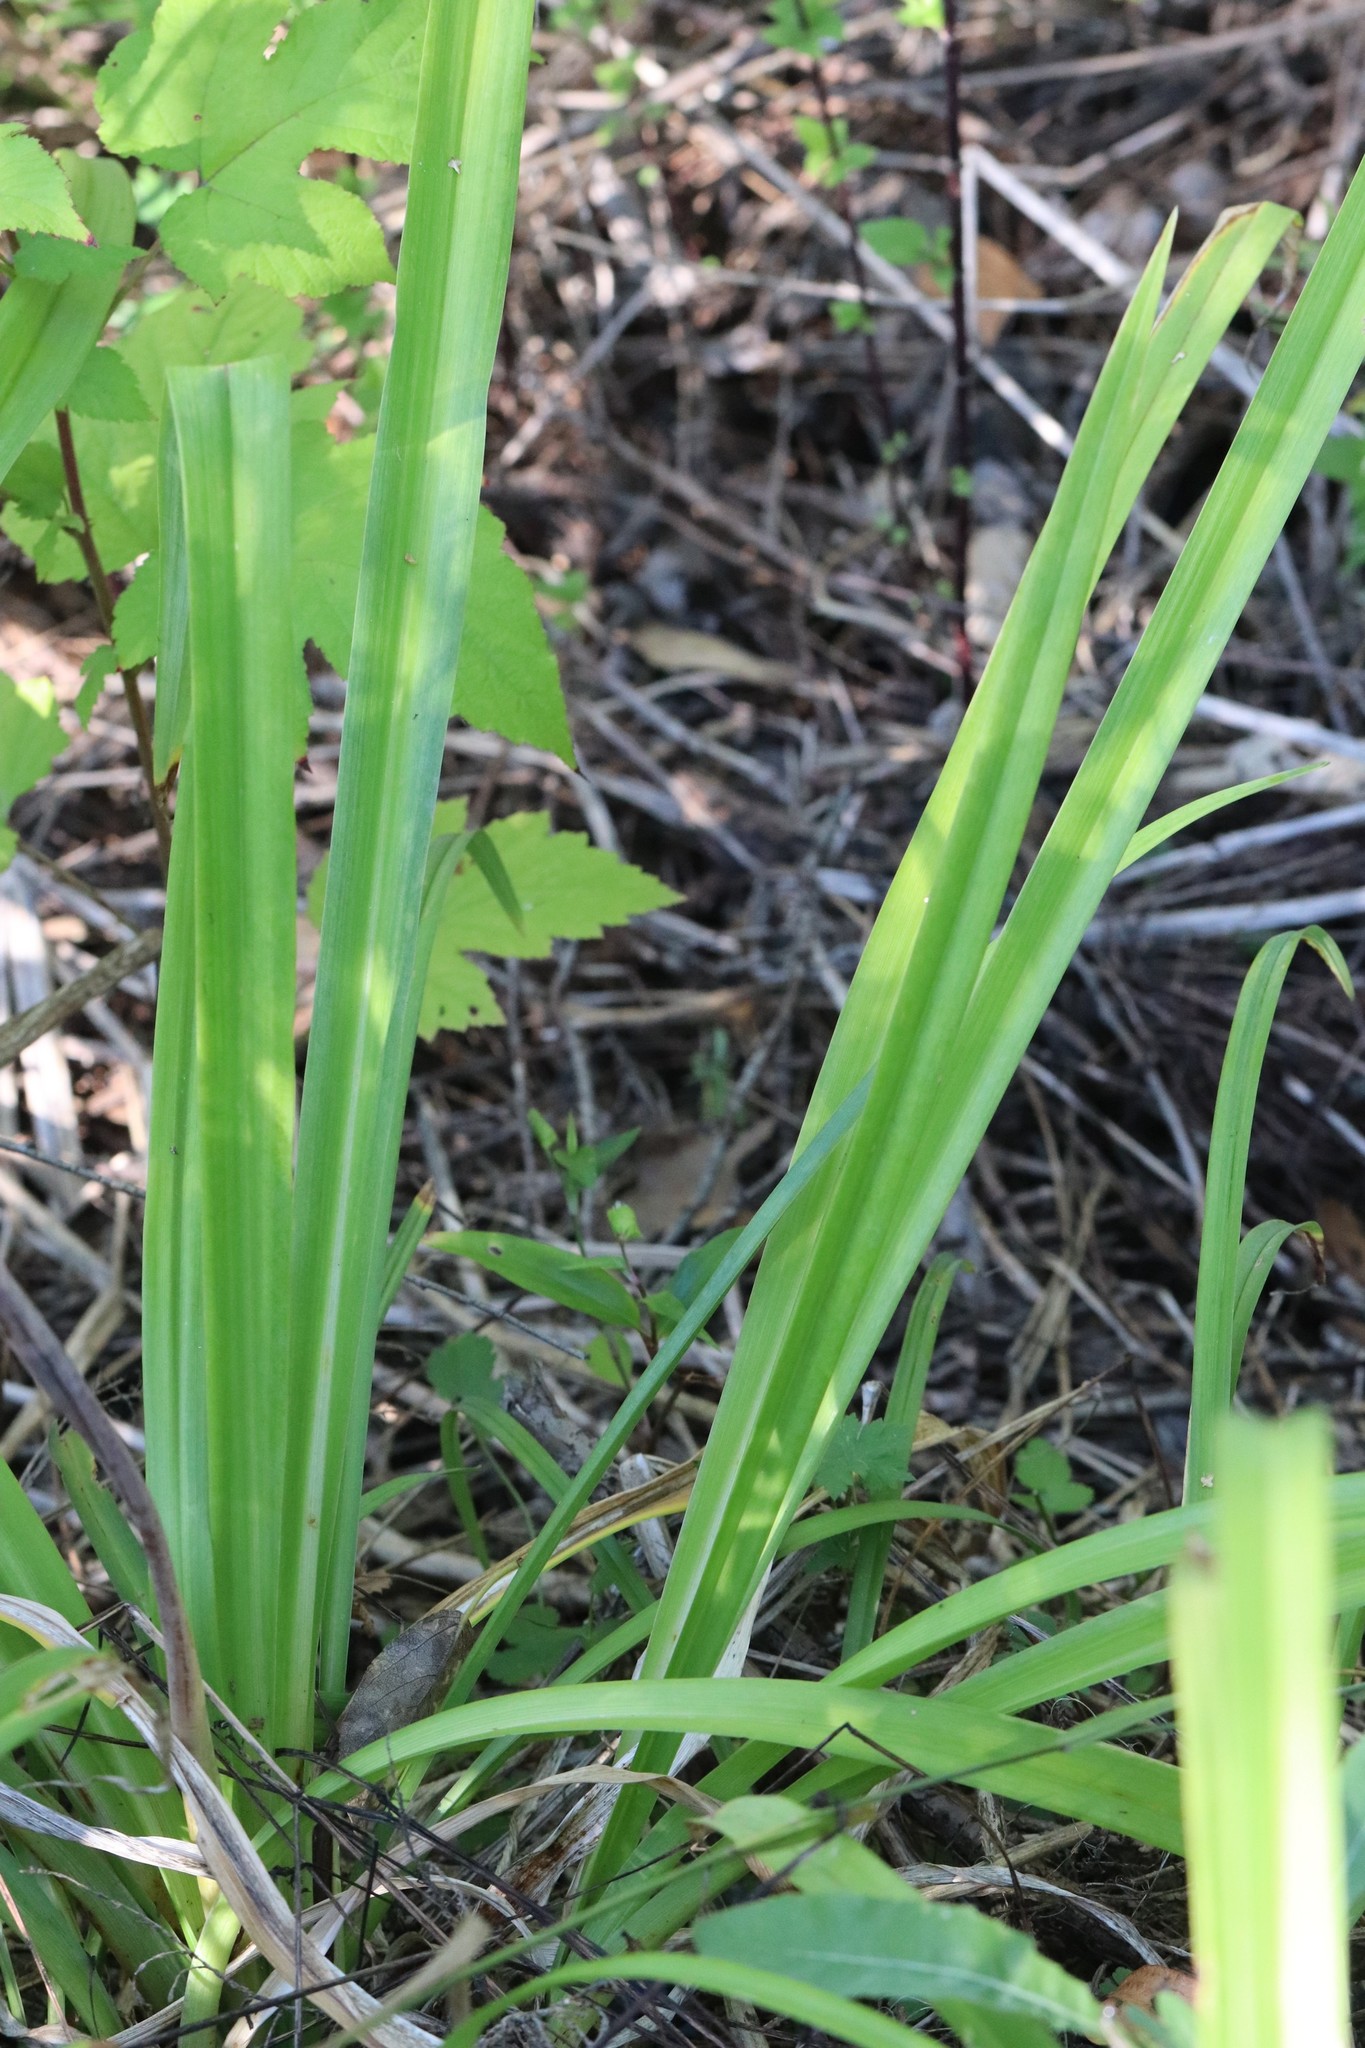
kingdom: Plantae
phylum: Tracheophyta
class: Liliopsida
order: Asparagales
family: Asphodelaceae
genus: Hemerocallis
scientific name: Hemerocallis middendorffii
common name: Amur day-lily
